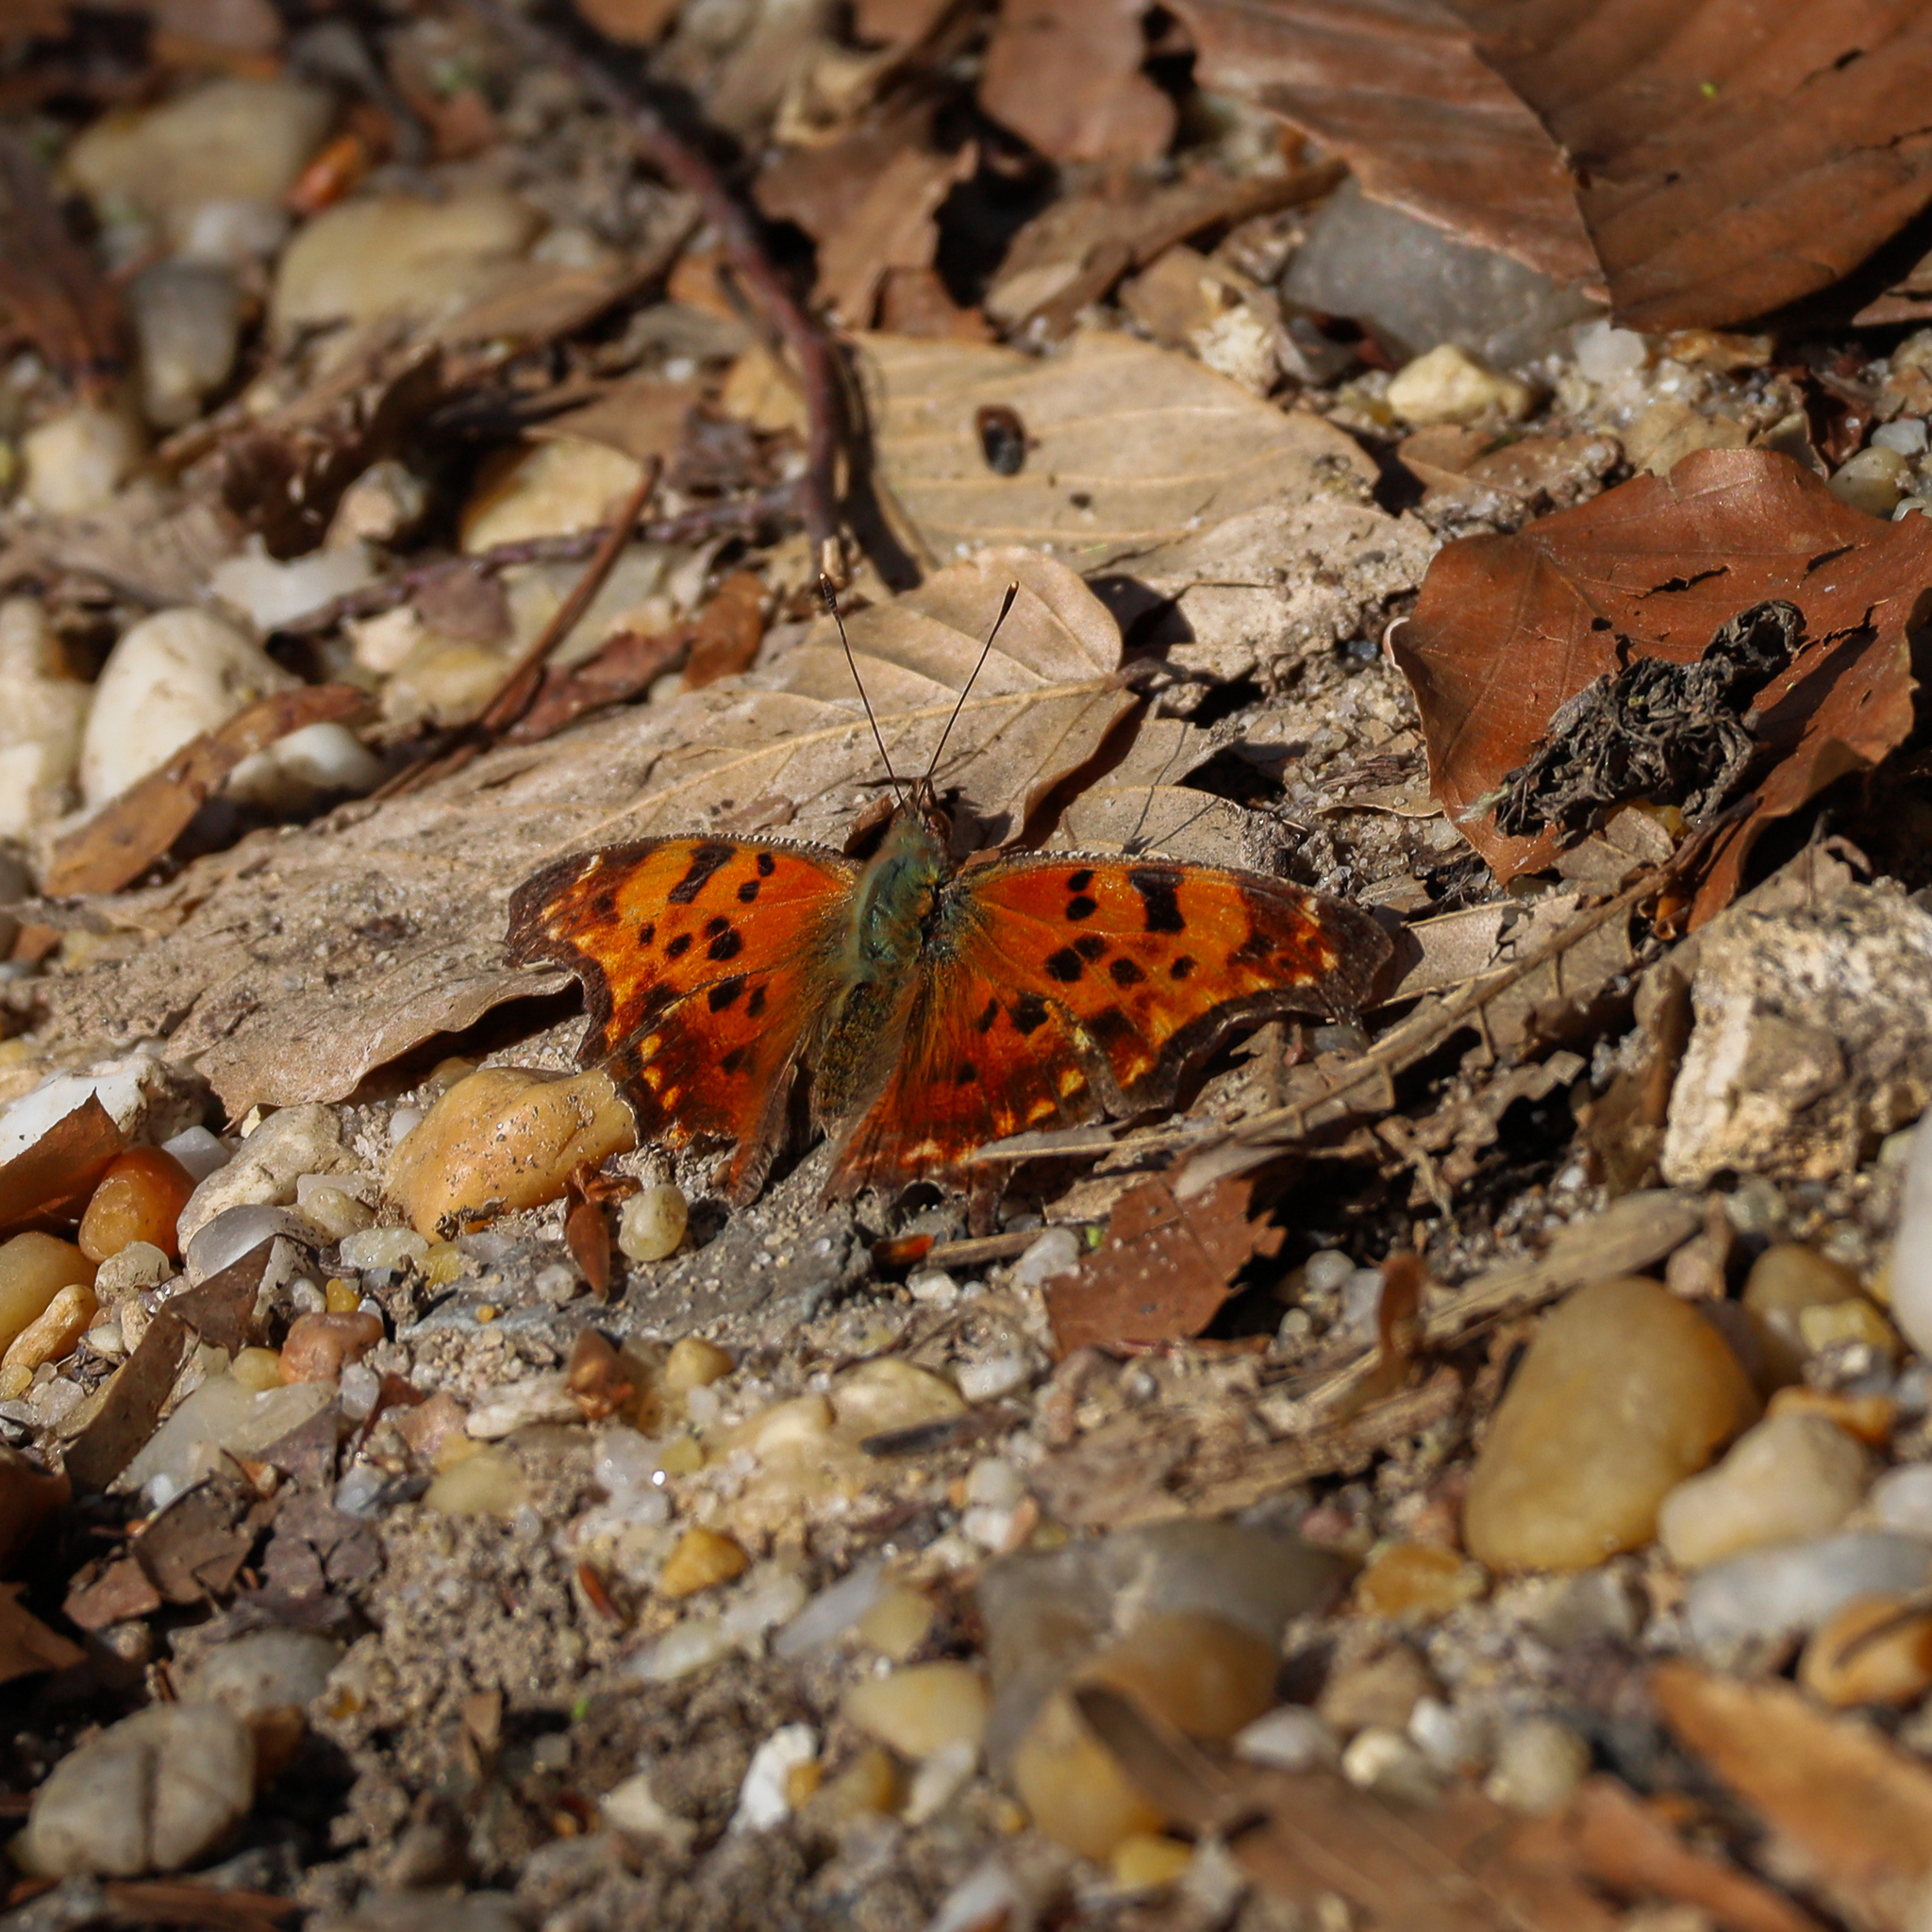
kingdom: Animalia
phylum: Arthropoda
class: Insecta
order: Lepidoptera
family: Nymphalidae
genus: Polygonia
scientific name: Polygonia comma
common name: Eastern comma
